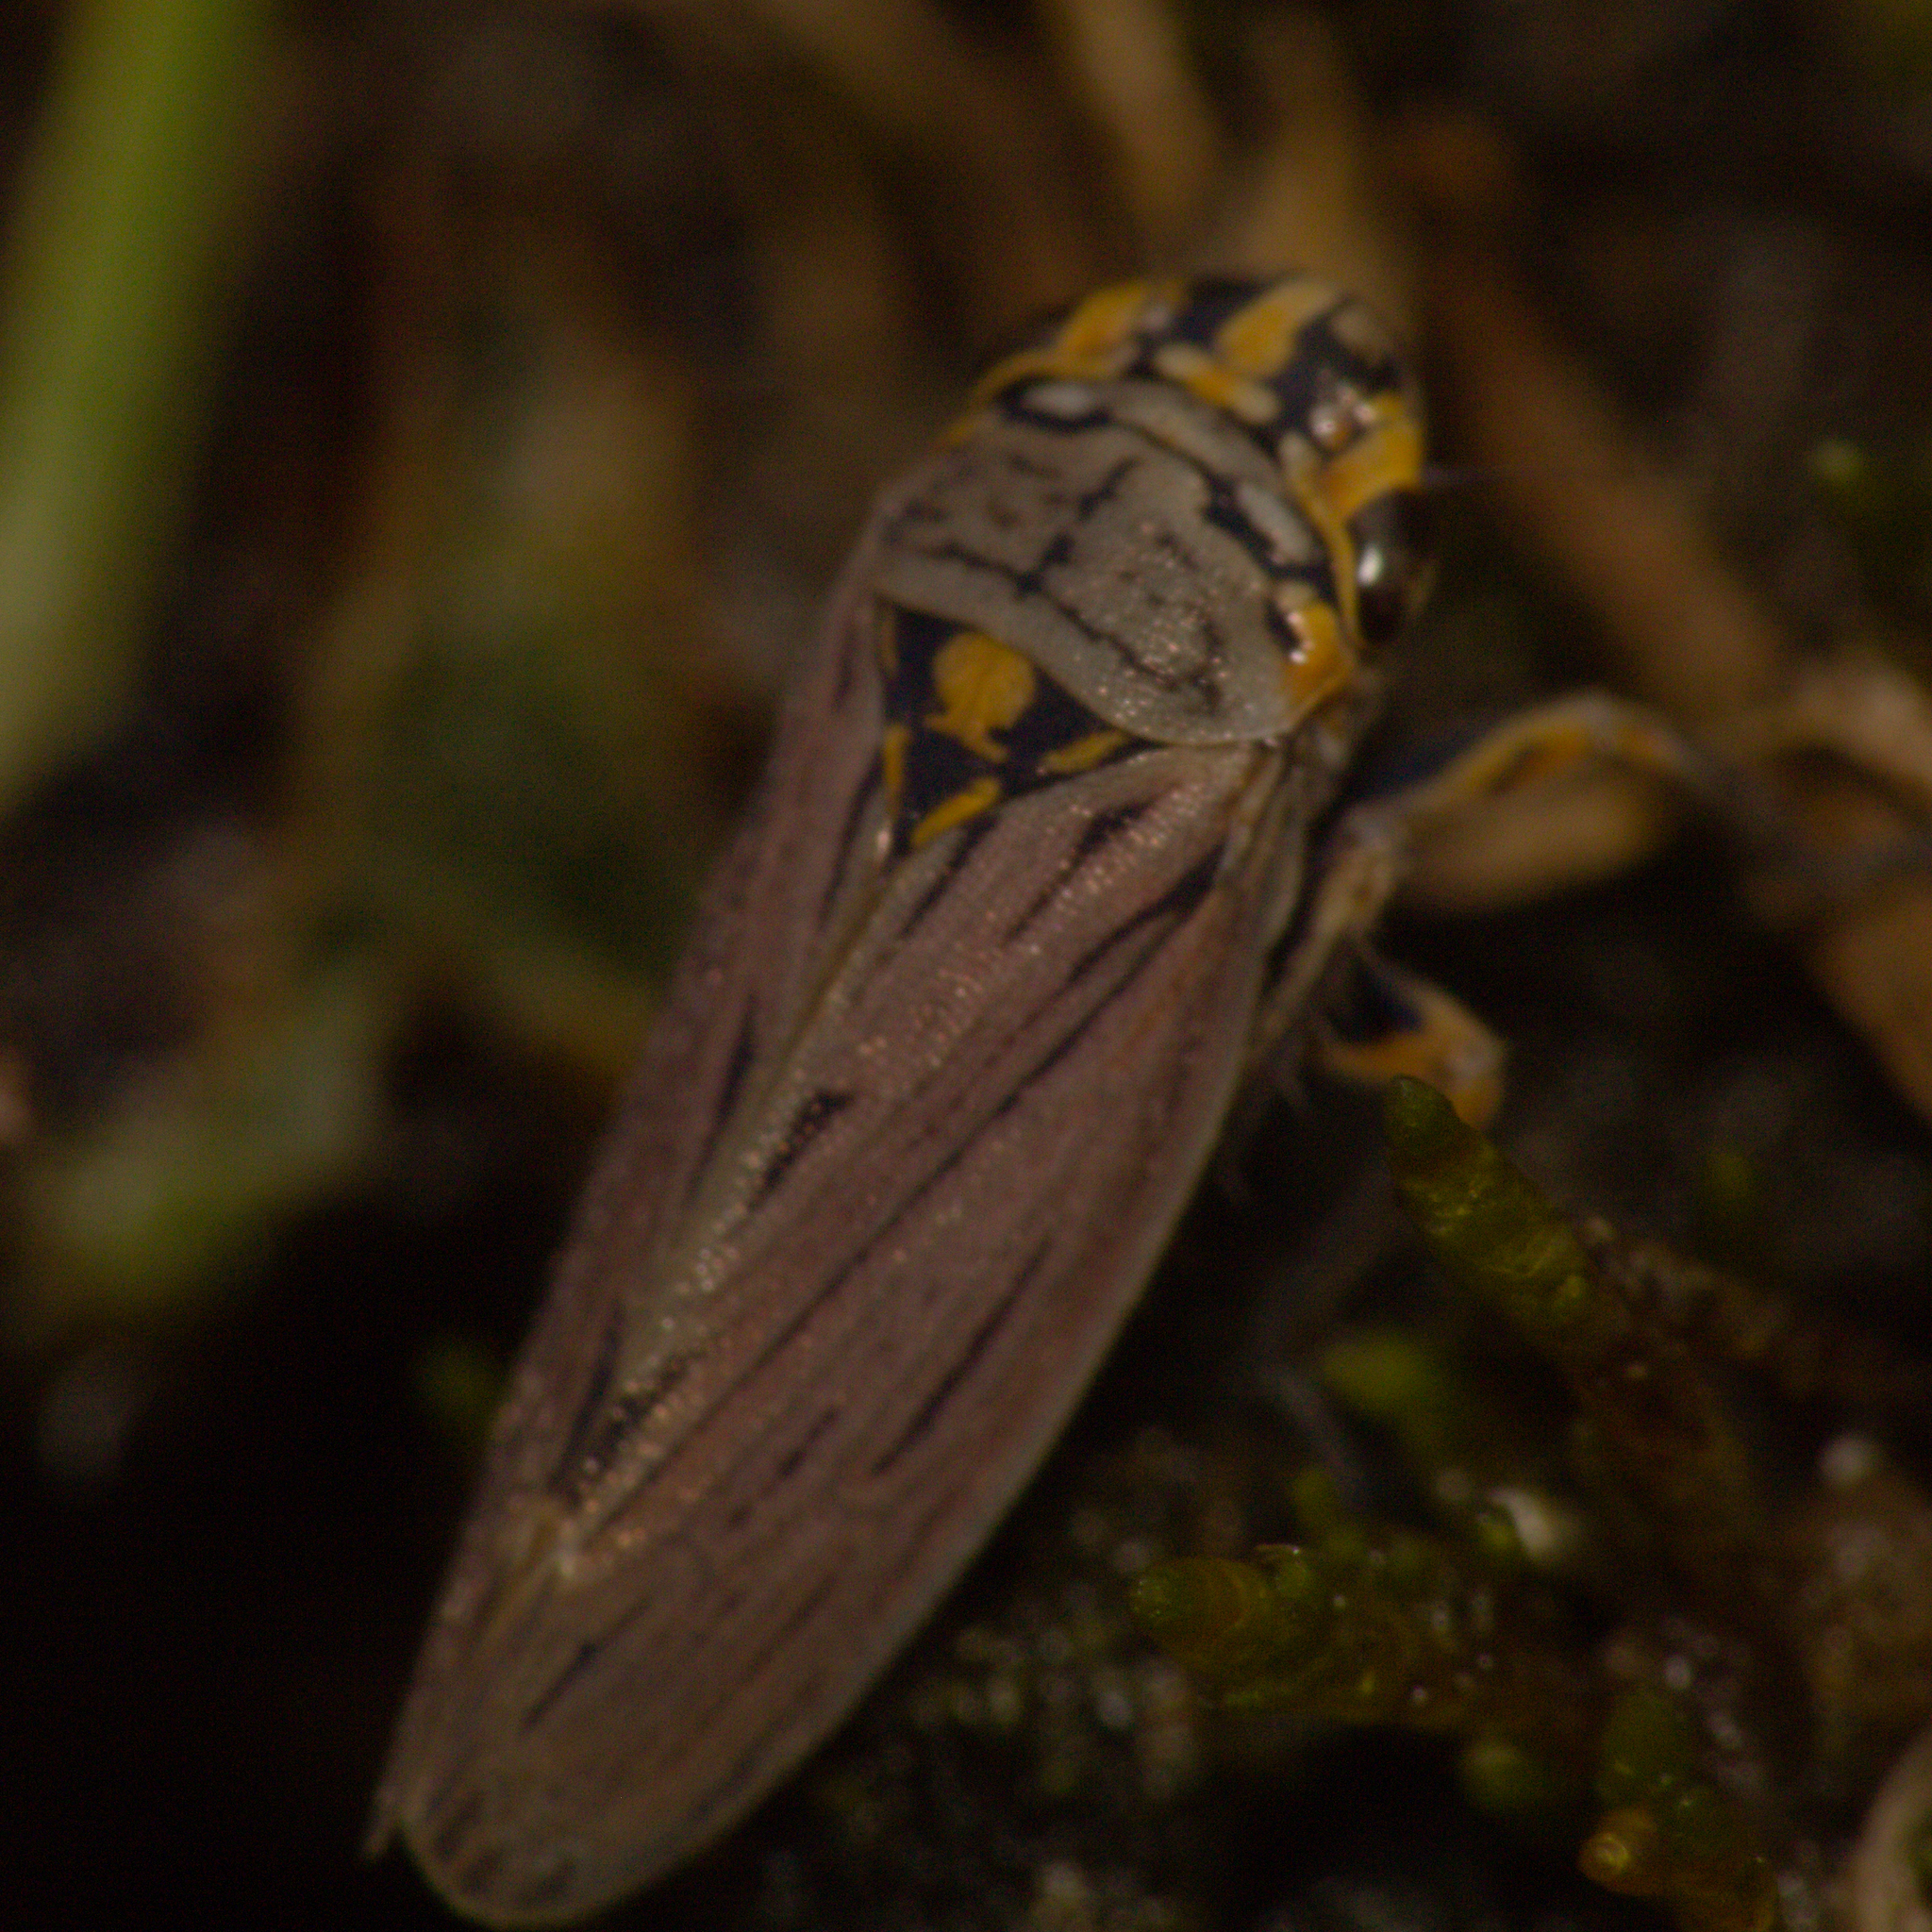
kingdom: Animalia
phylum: Arthropoda
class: Insecta
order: Hemiptera
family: Cicadellidae
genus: Dechacona
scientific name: Dechacona missionum
